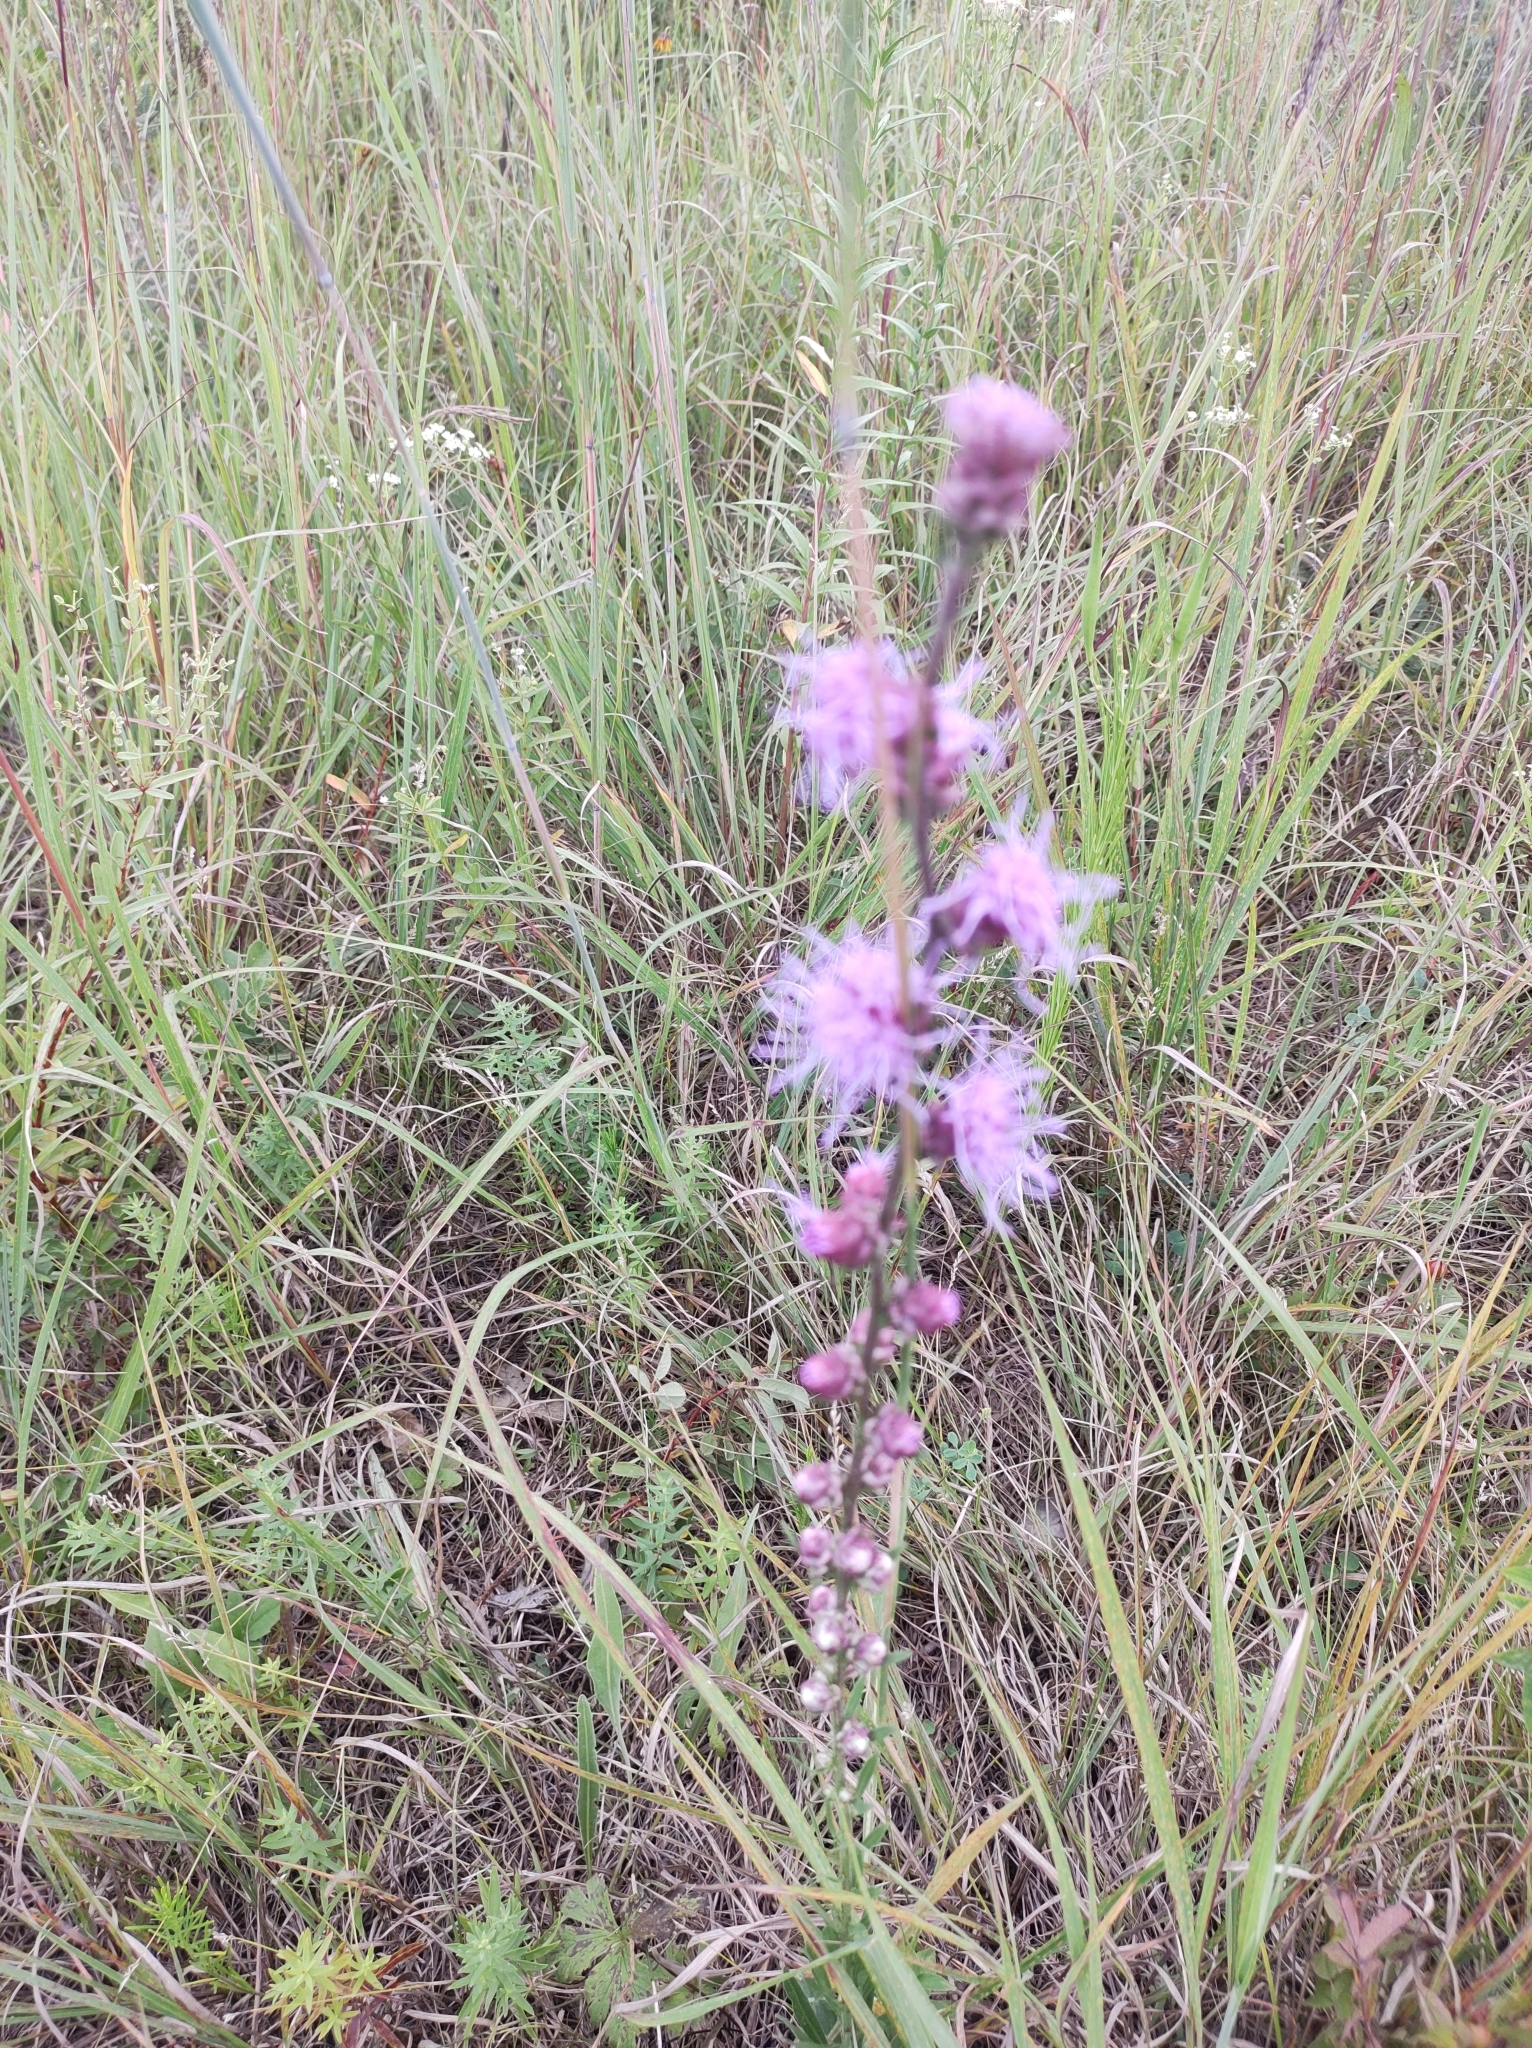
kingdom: Plantae
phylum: Tracheophyta
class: Magnoliopsida
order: Asterales
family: Asteraceae
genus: Liatris
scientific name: Liatris aspera
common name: Lacerate blazing-star
